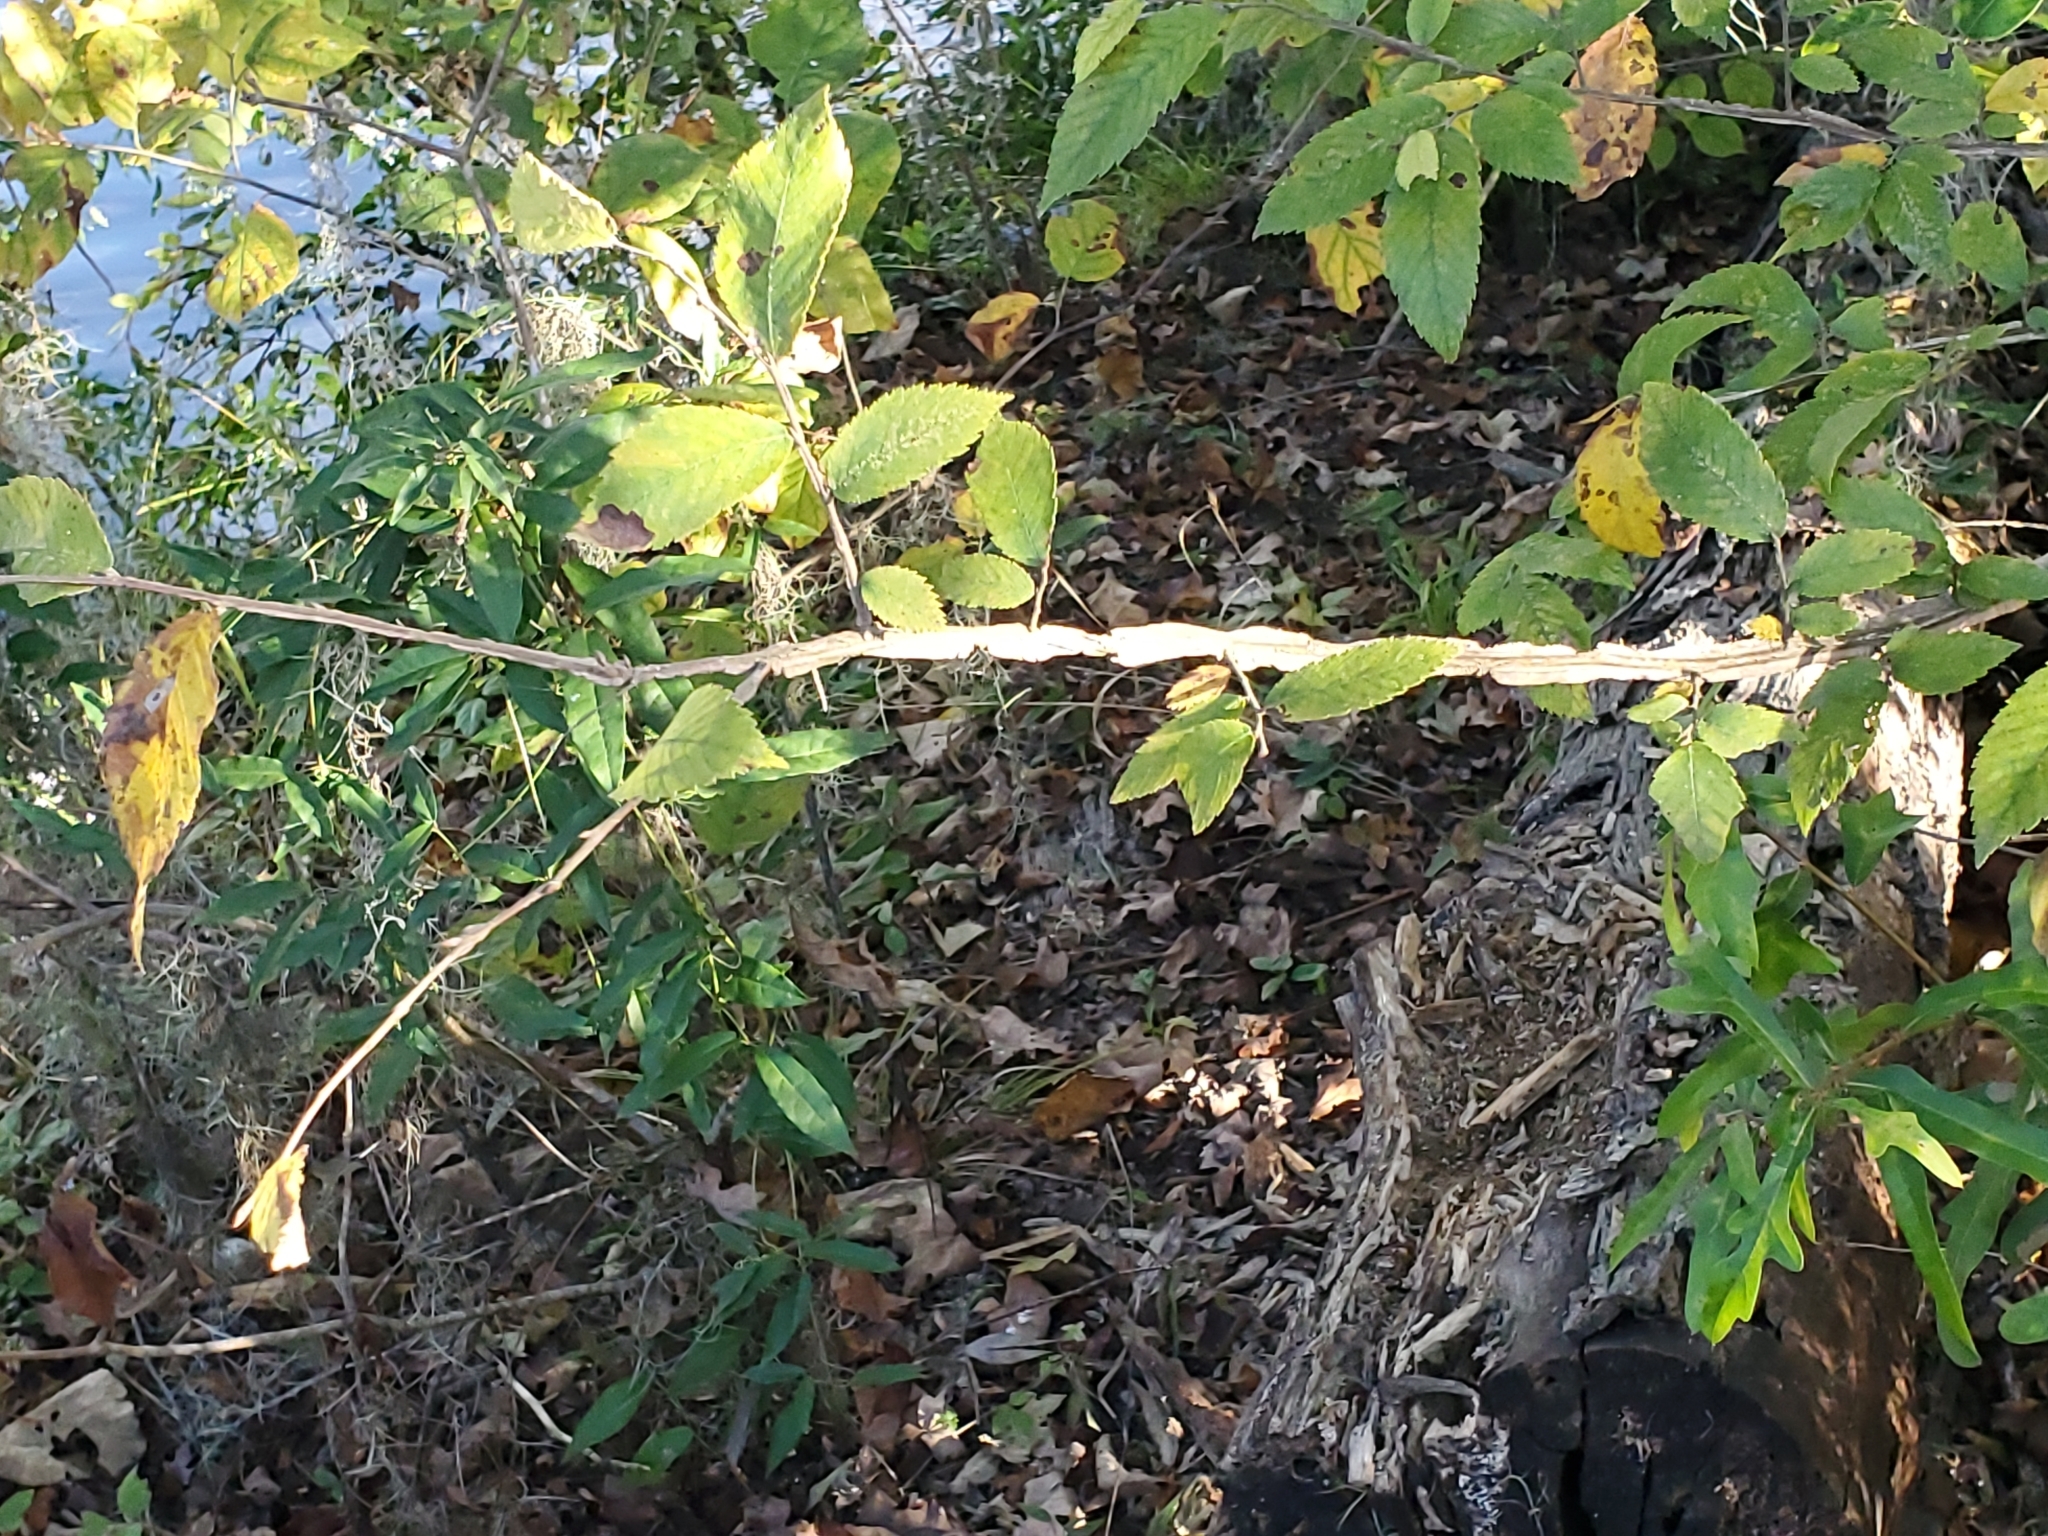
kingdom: Plantae
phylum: Tracheophyta
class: Magnoliopsida
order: Rosales
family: Ulmaceae
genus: Ulmus
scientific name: Ulmus alata
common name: Winged elm
